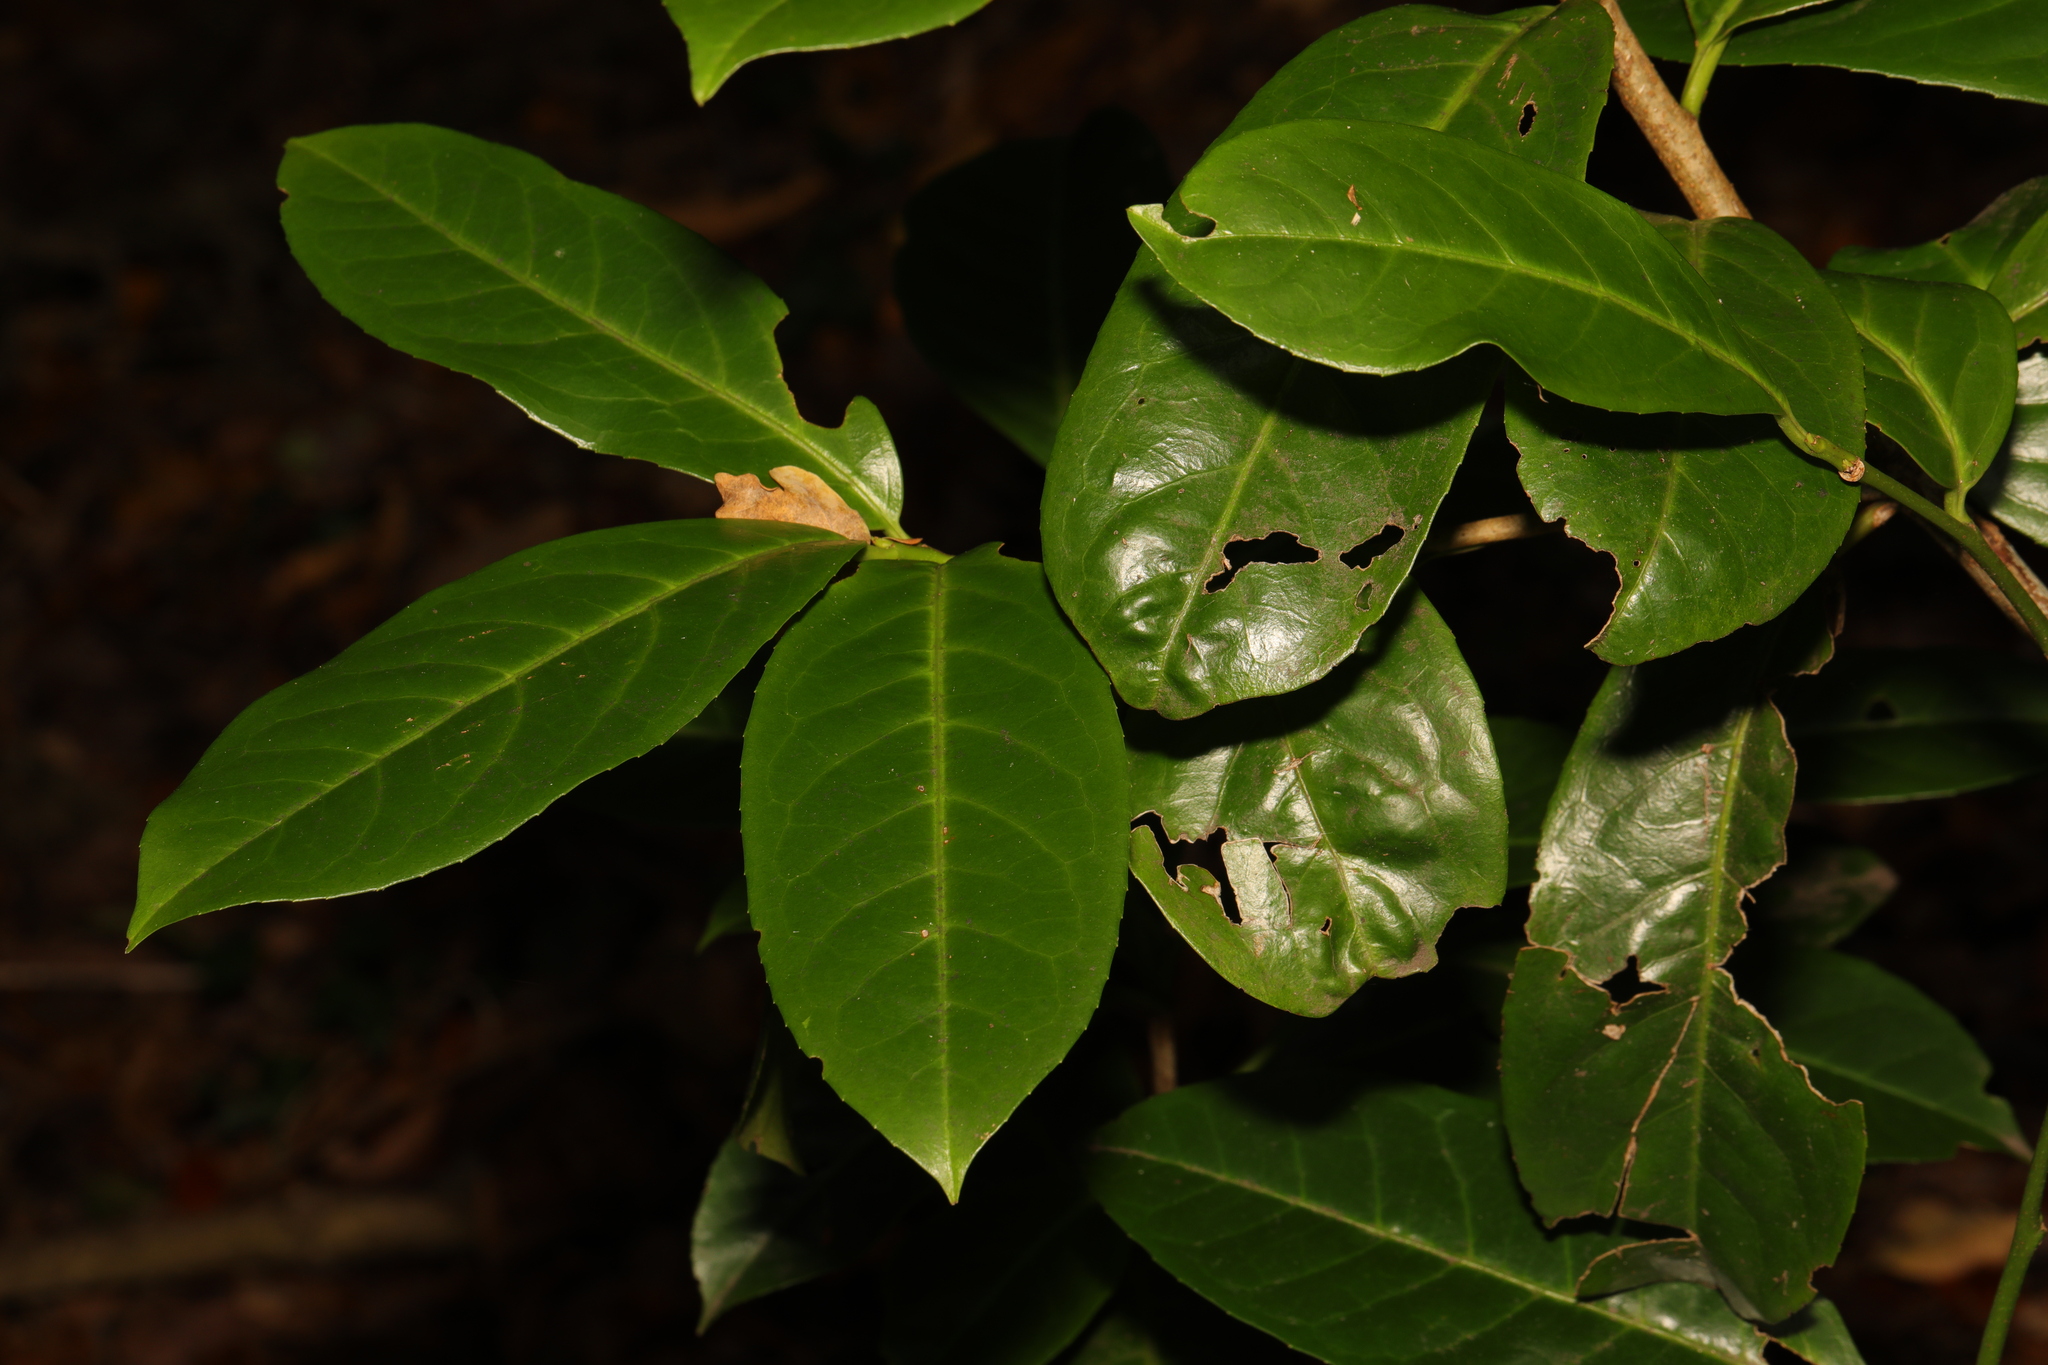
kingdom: Plantae
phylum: Tracheophyta
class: Magnoliopsida
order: Rosales
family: Rosaceae
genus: Prunus
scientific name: Prunus laurocerasus
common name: Cherry laurel
